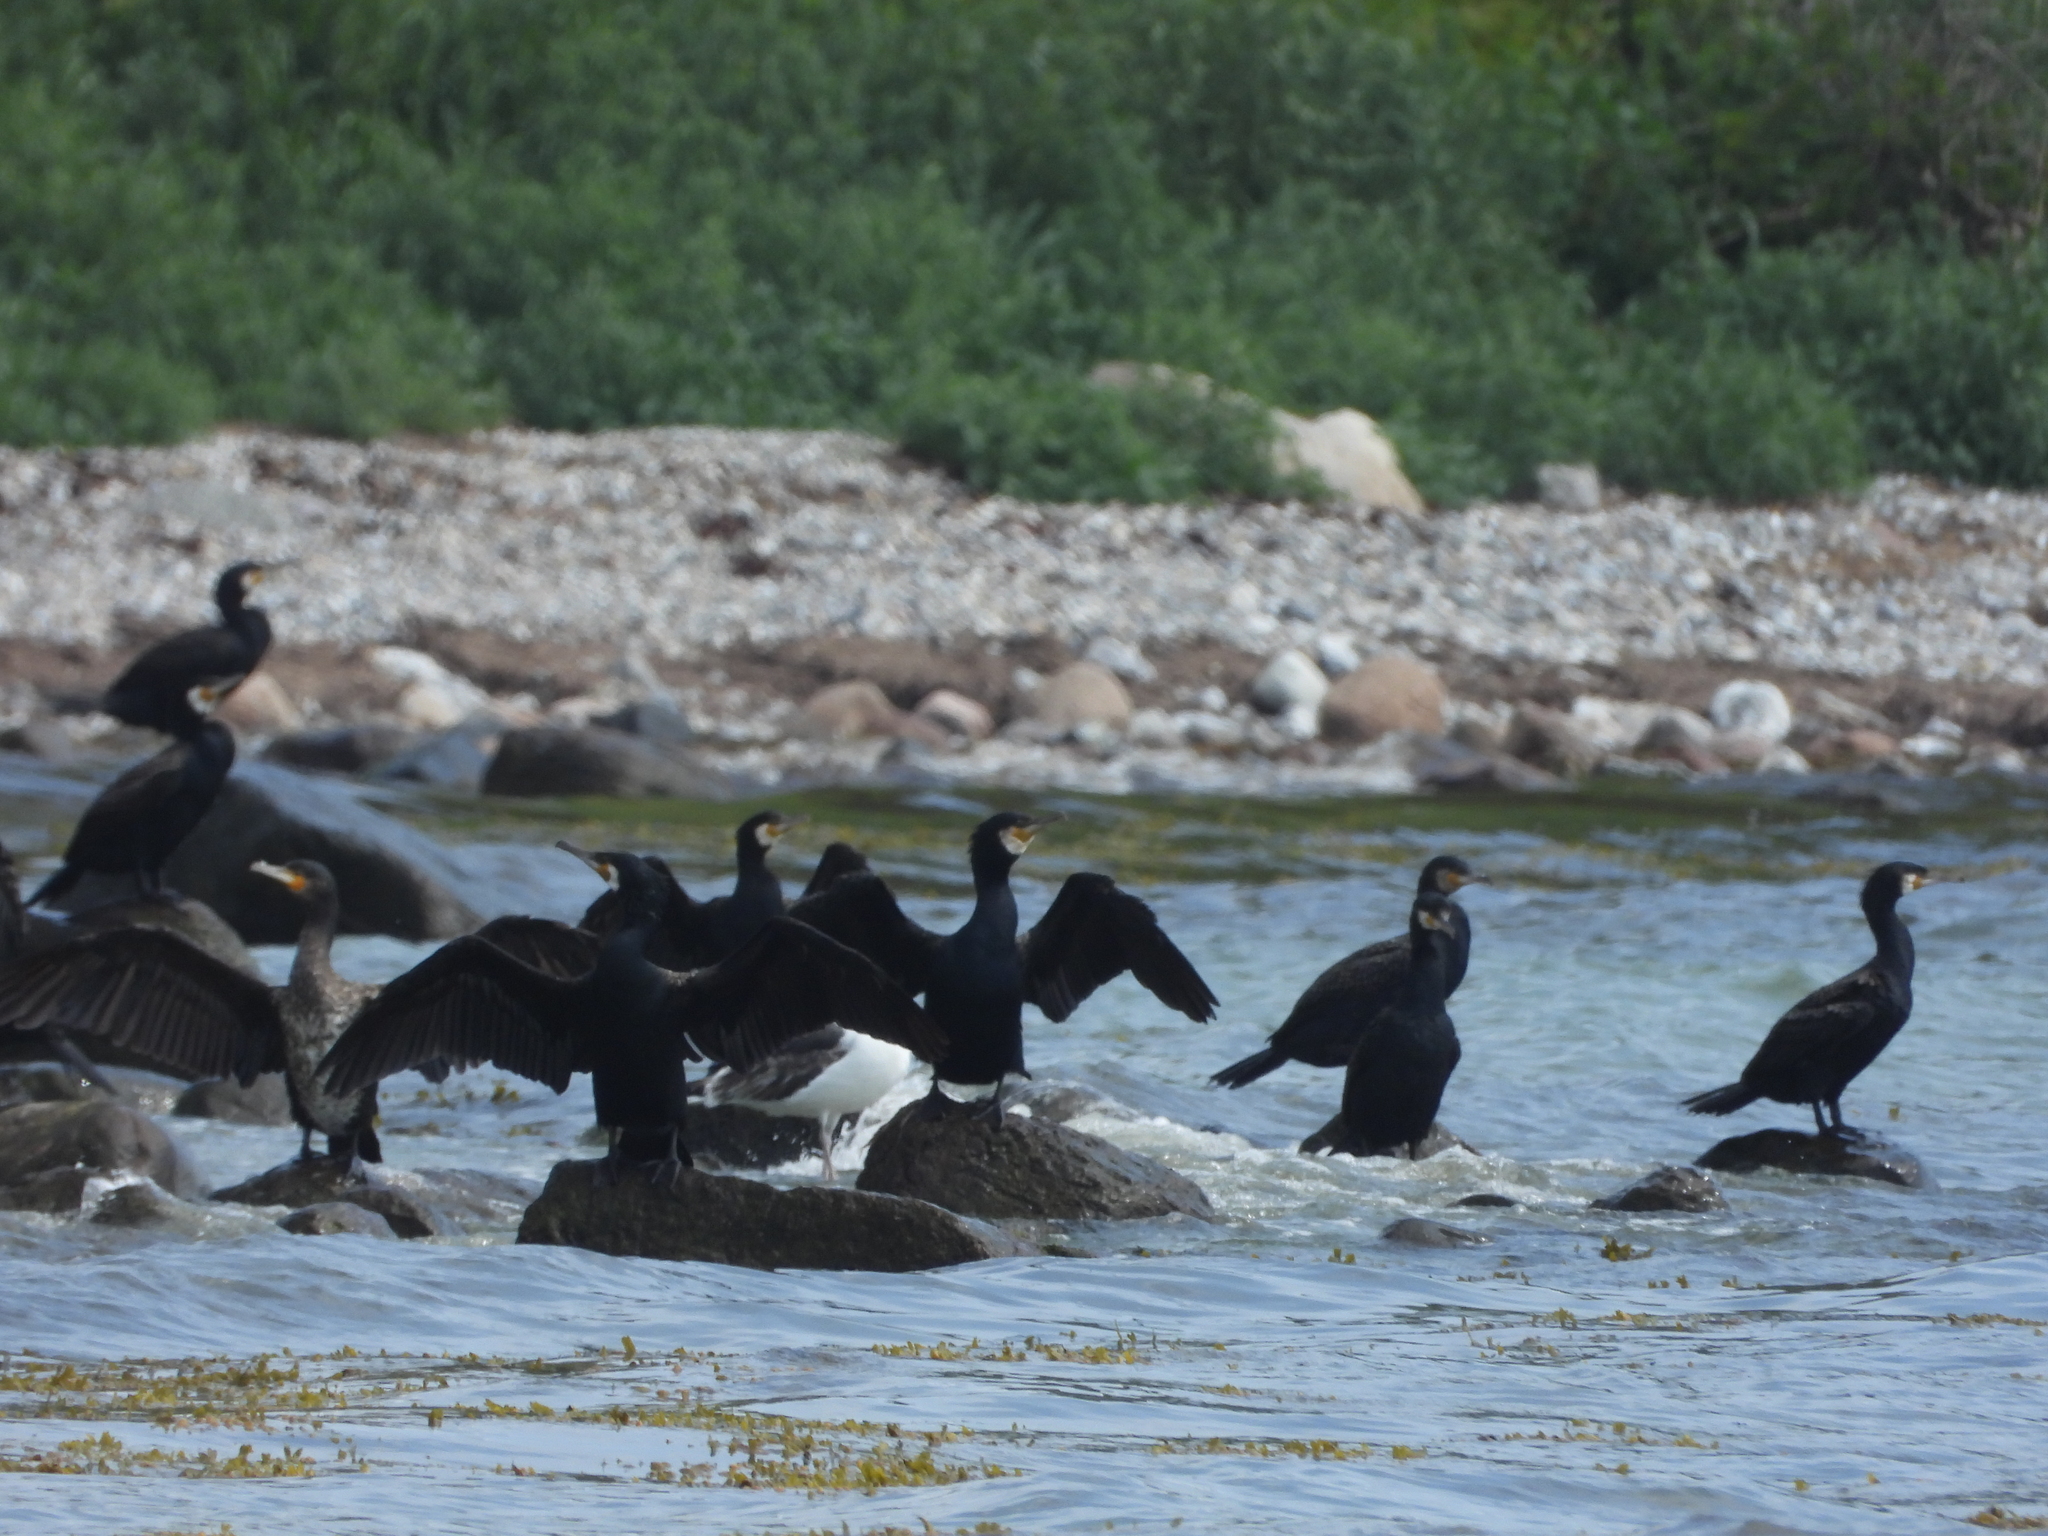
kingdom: Animalia
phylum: Chordata
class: Aves
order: Suliformes
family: Phalacrocoracidae
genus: Phalacrocorax
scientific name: Phalacrocorax carbo
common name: Great cormorant
